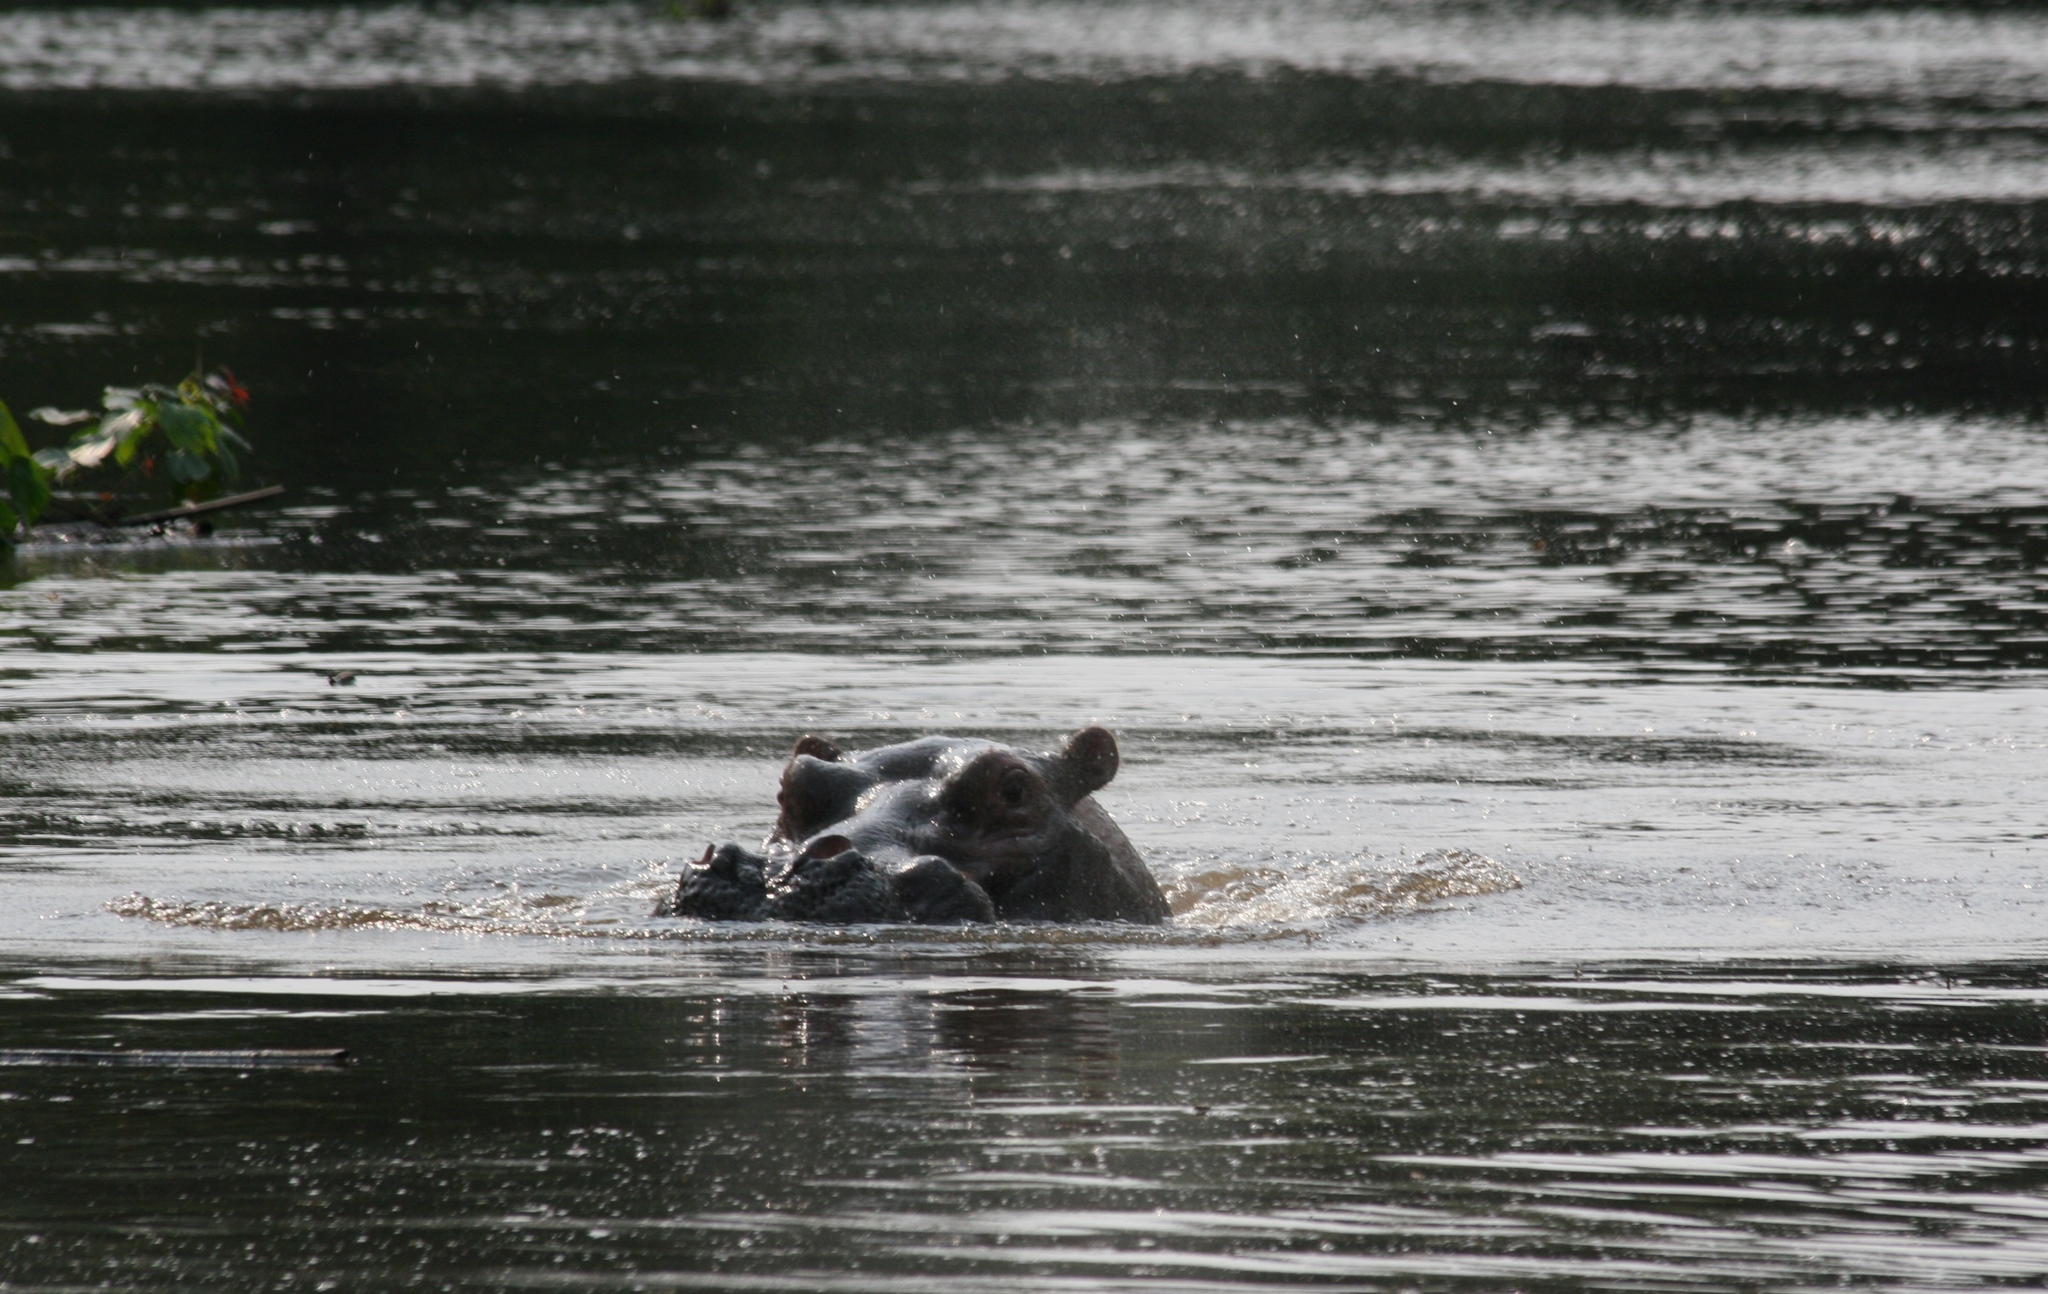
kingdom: Animalia
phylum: Chordata
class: Mammalia
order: Artiodactyla
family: Hippopotamidae
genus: Hippopotamus
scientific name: Hippopotamus amphibius
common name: Common hippopotamus
